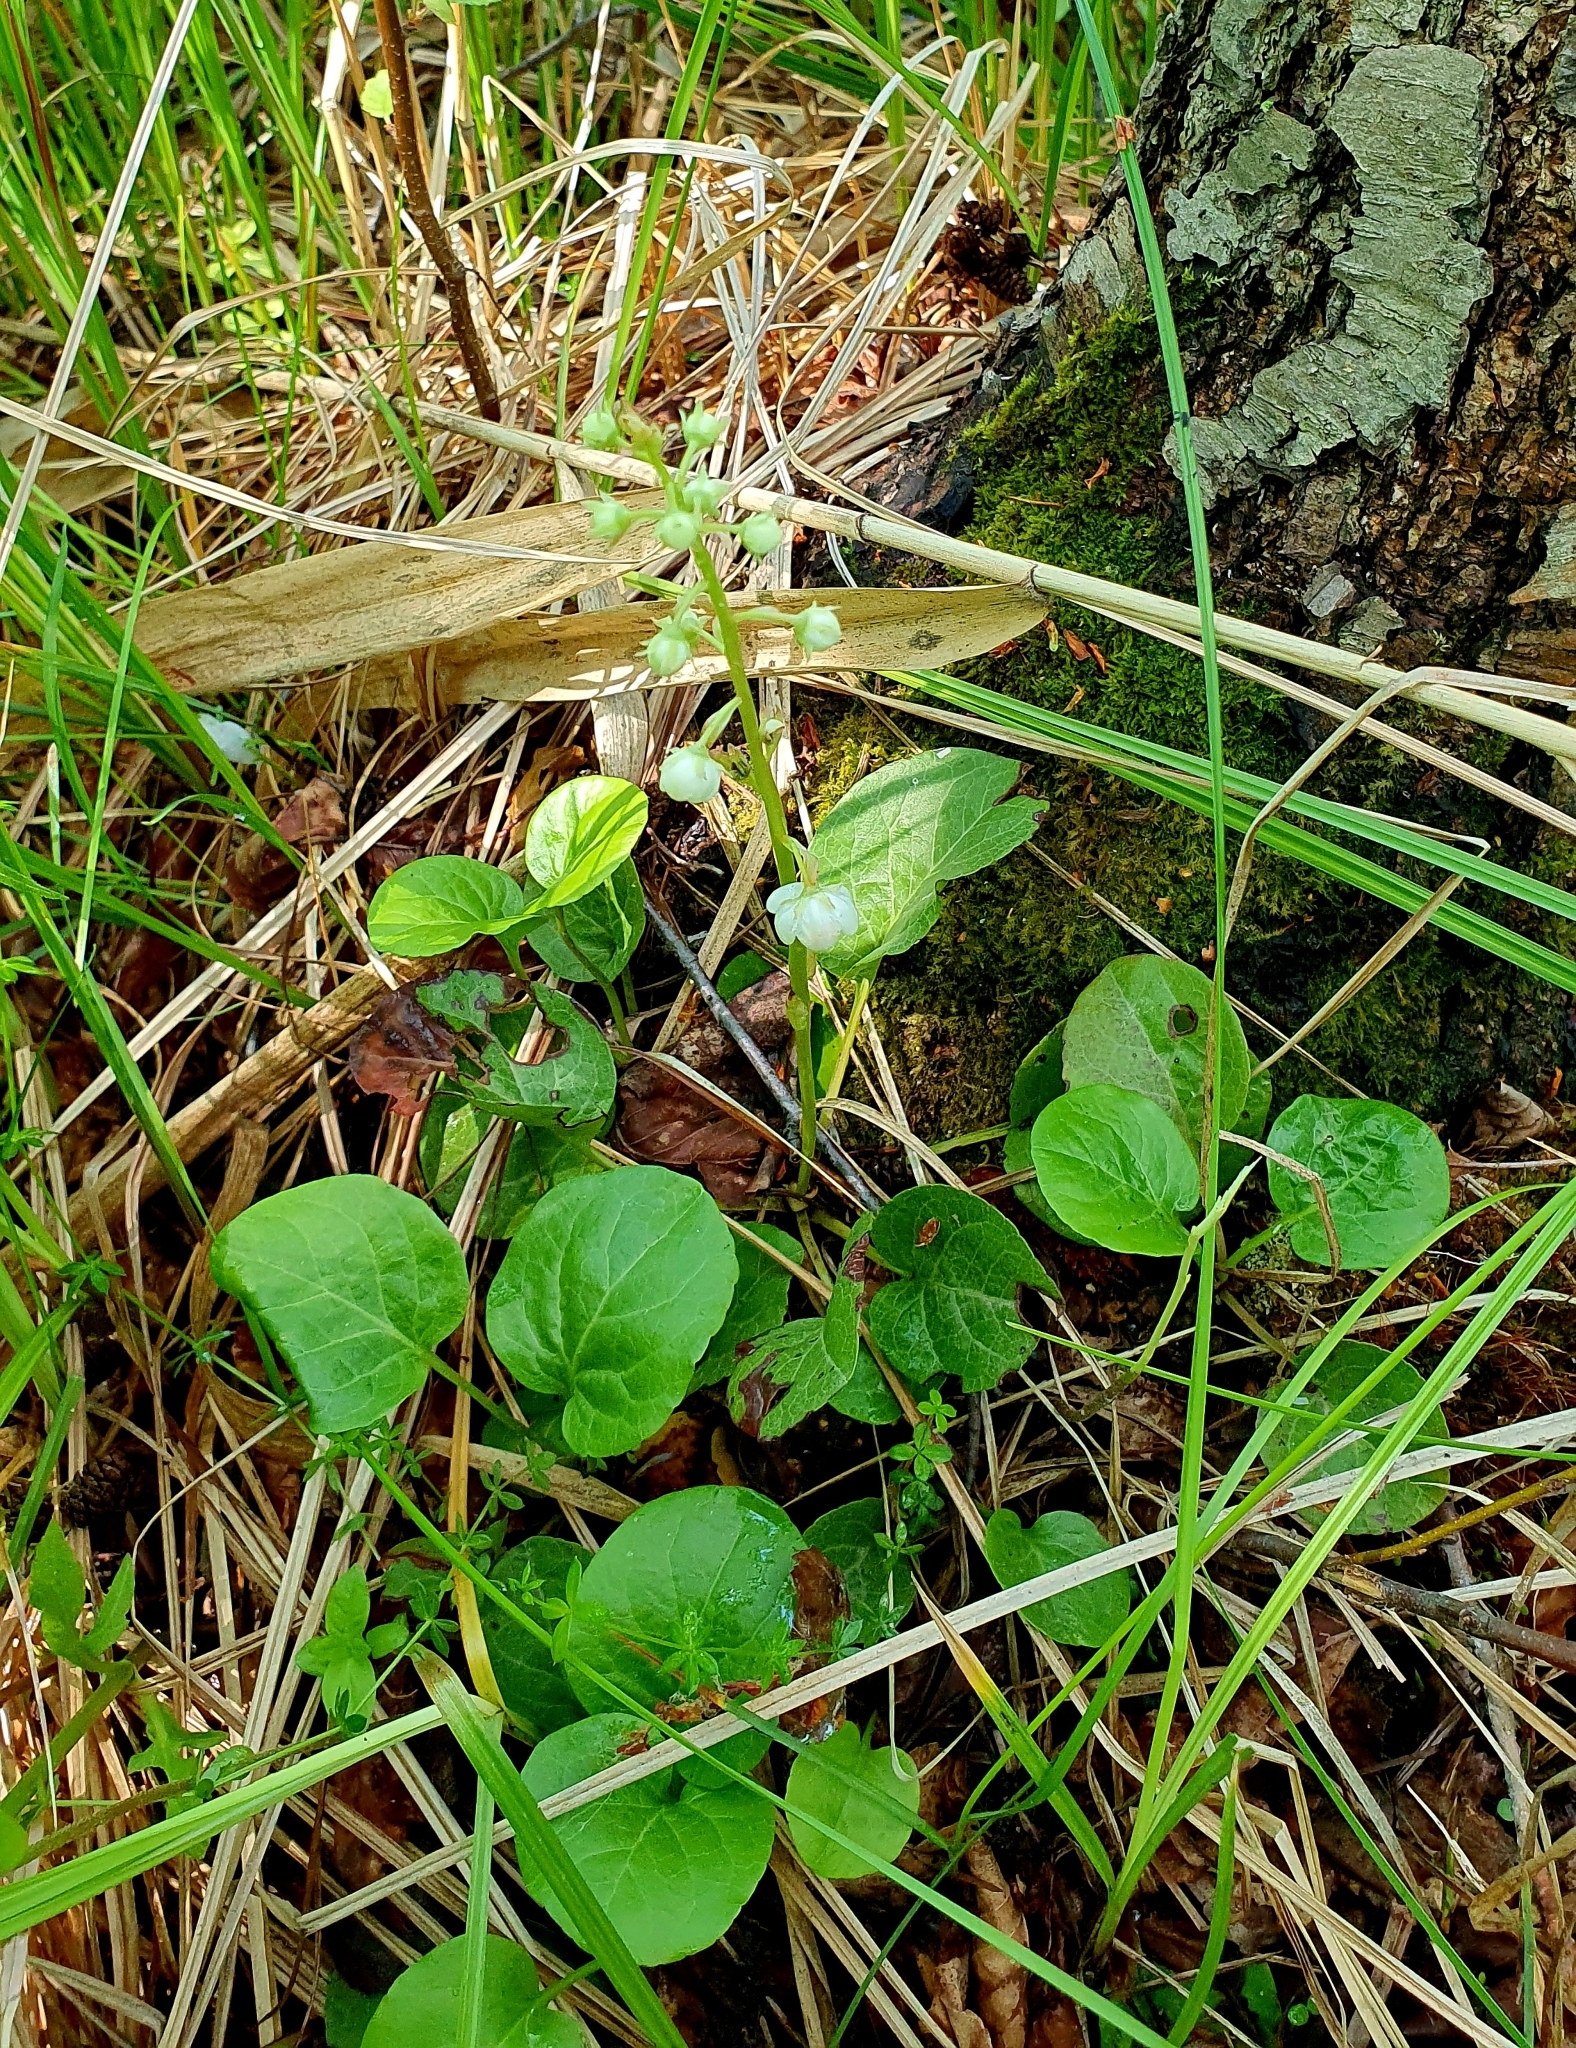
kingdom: Plantae
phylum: Tracheophyta
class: Magnoliopsida
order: Ericales
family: Ericaceae
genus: Pyrola
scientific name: Pyrola rotundifolia
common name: Round-leaved wintergreen
